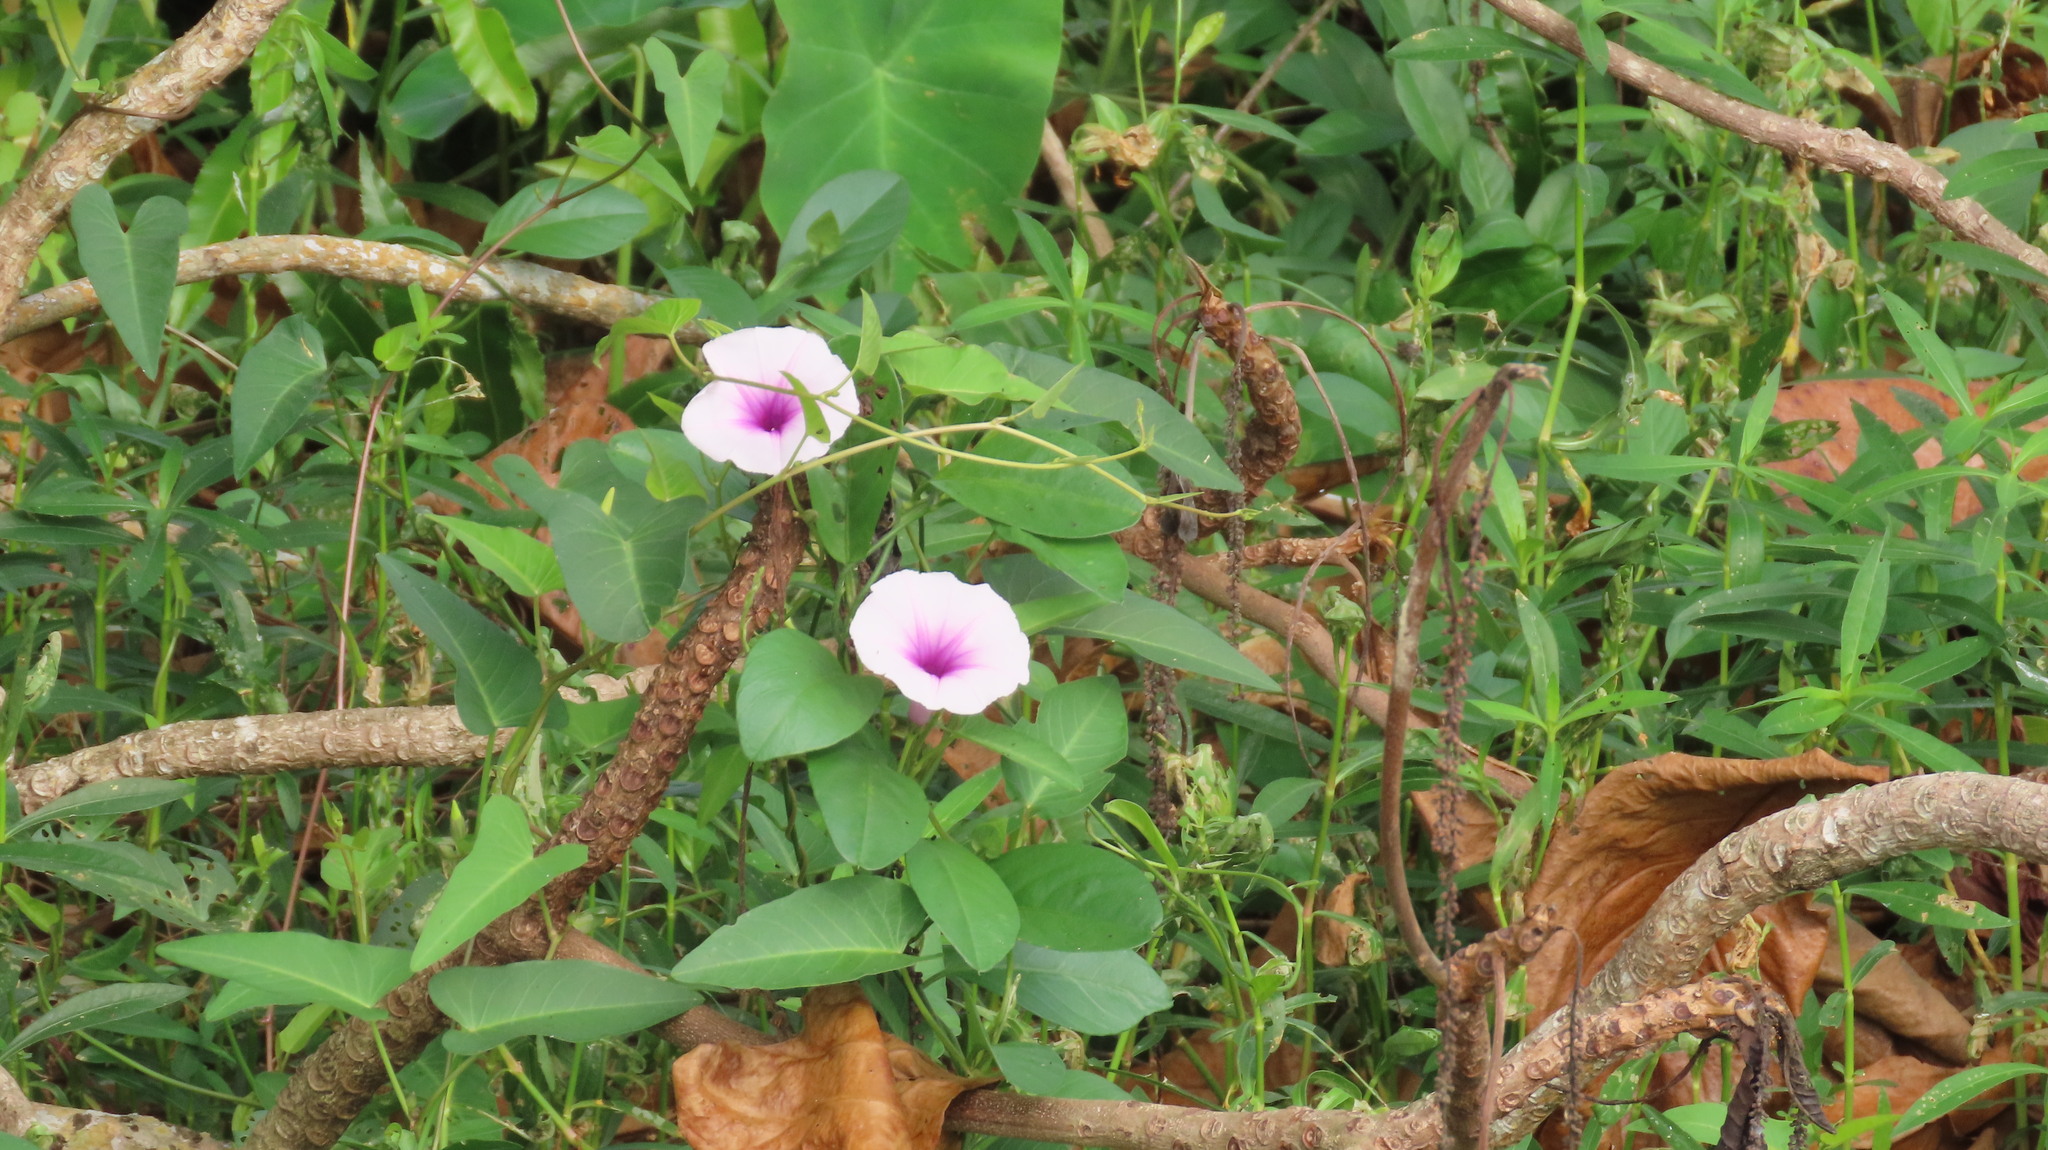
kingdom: Plantae
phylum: Tracheophyta
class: Magnoliopsida
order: Solanales
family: Convolvulaceae
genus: Ipomoea
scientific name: Ipomoea aquatica
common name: Swamp morning-glory
